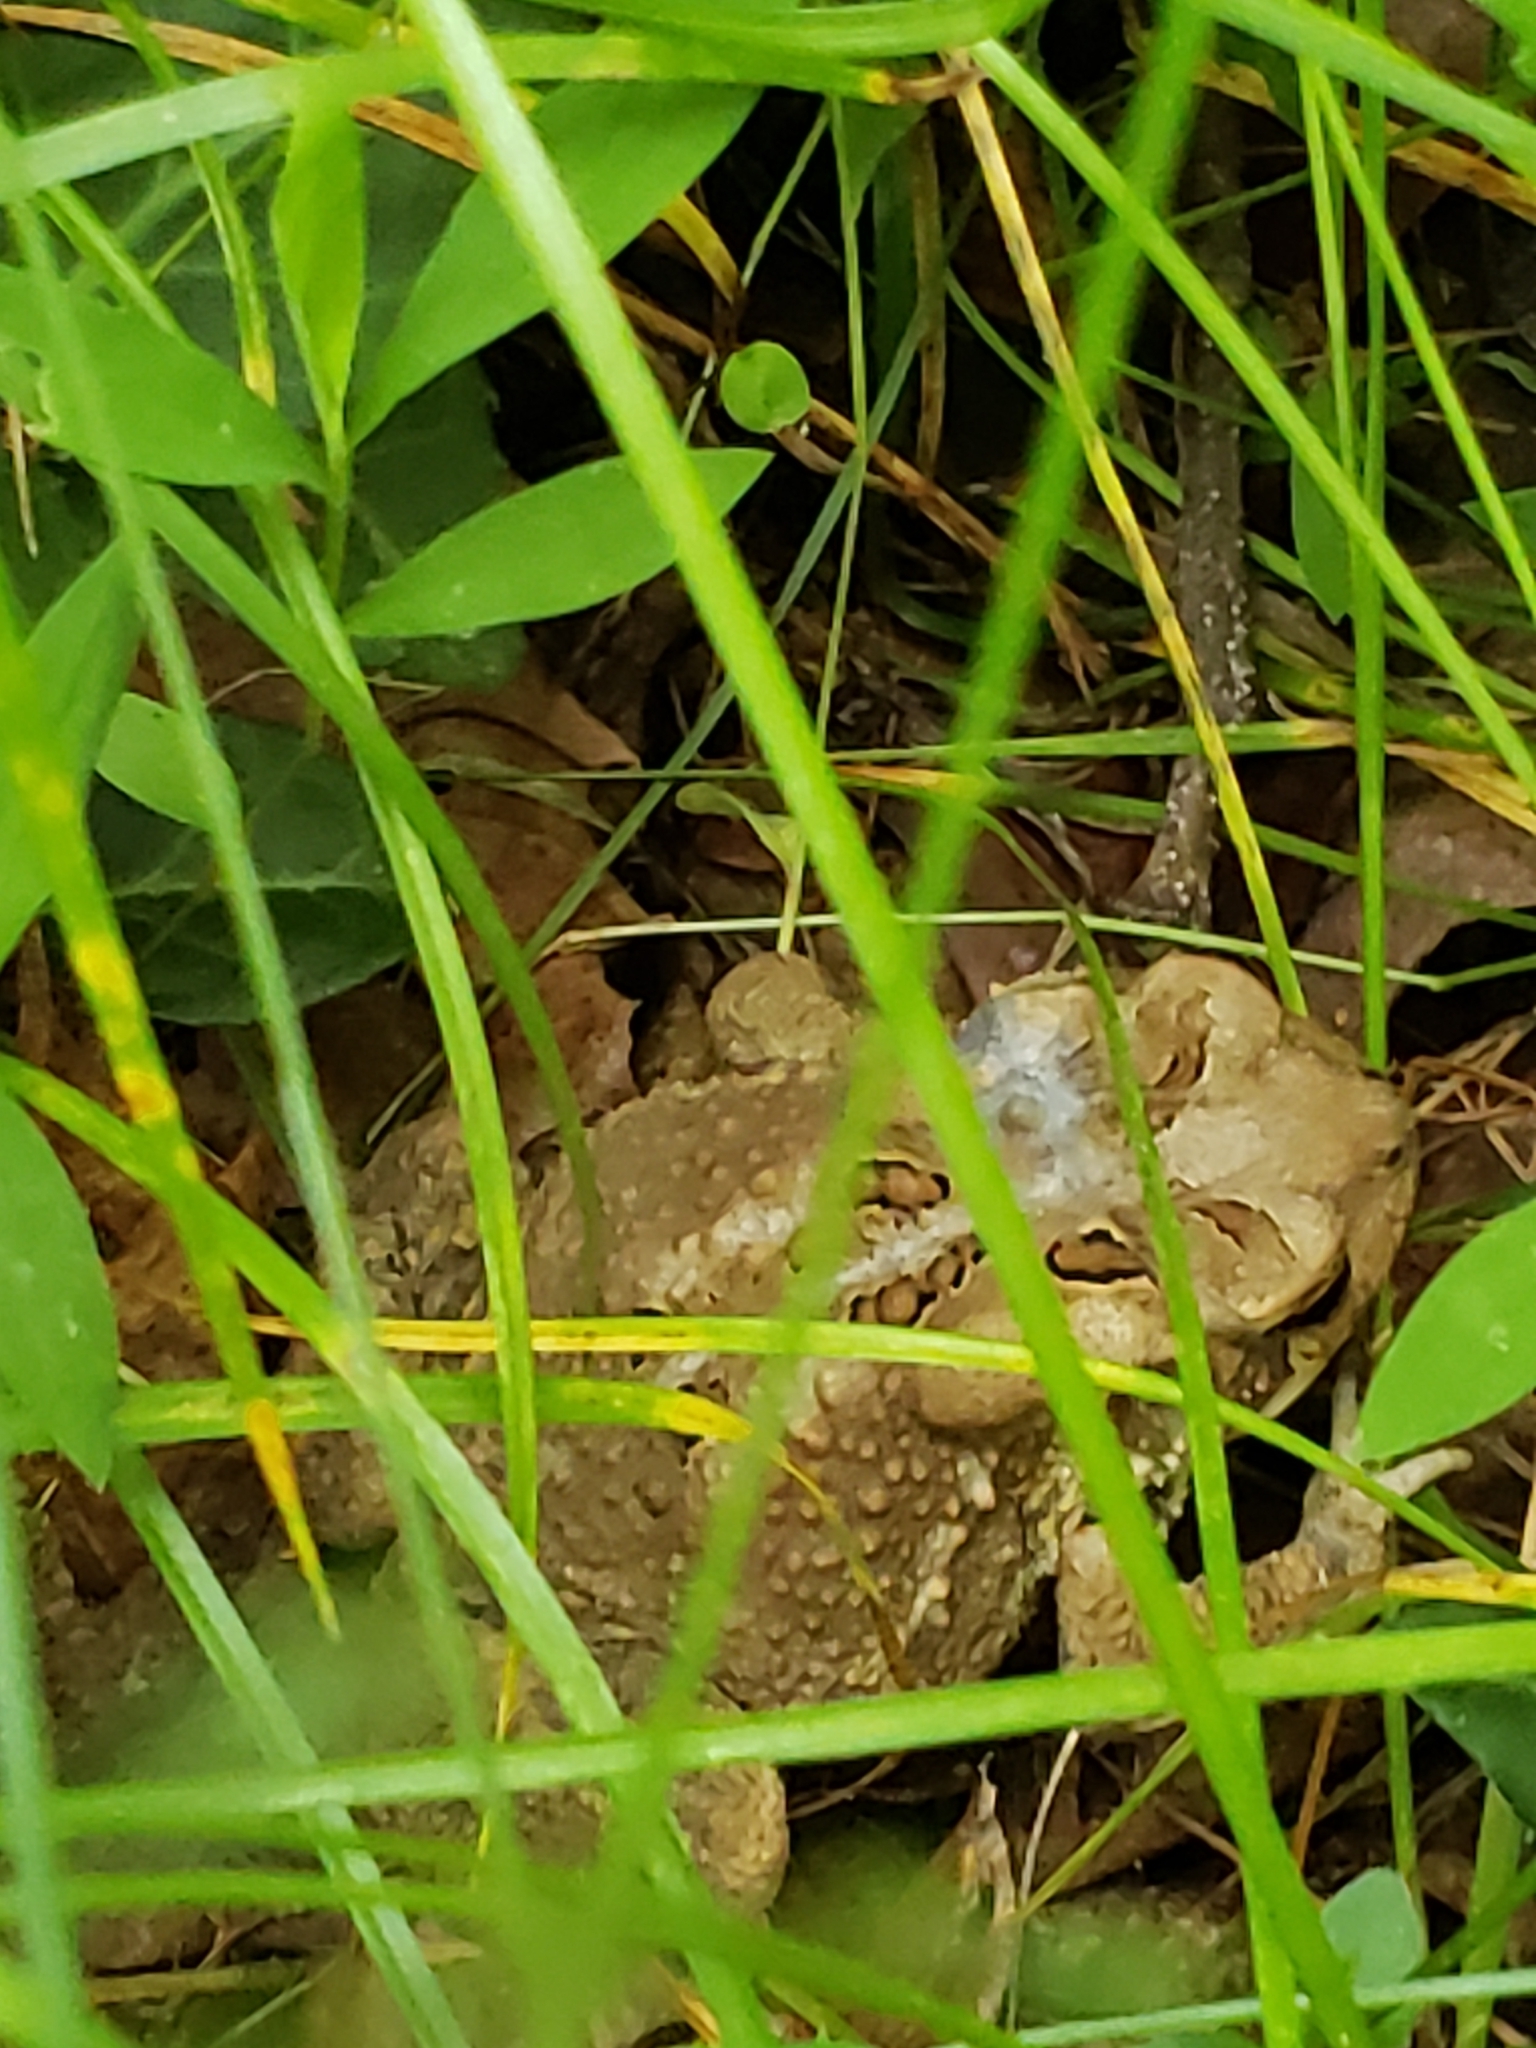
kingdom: Animalia
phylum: Chordata
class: Amphibia
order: Anura
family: Bufonidae
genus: Anaxyrus
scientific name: Anaxyrus americanus
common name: American toad
